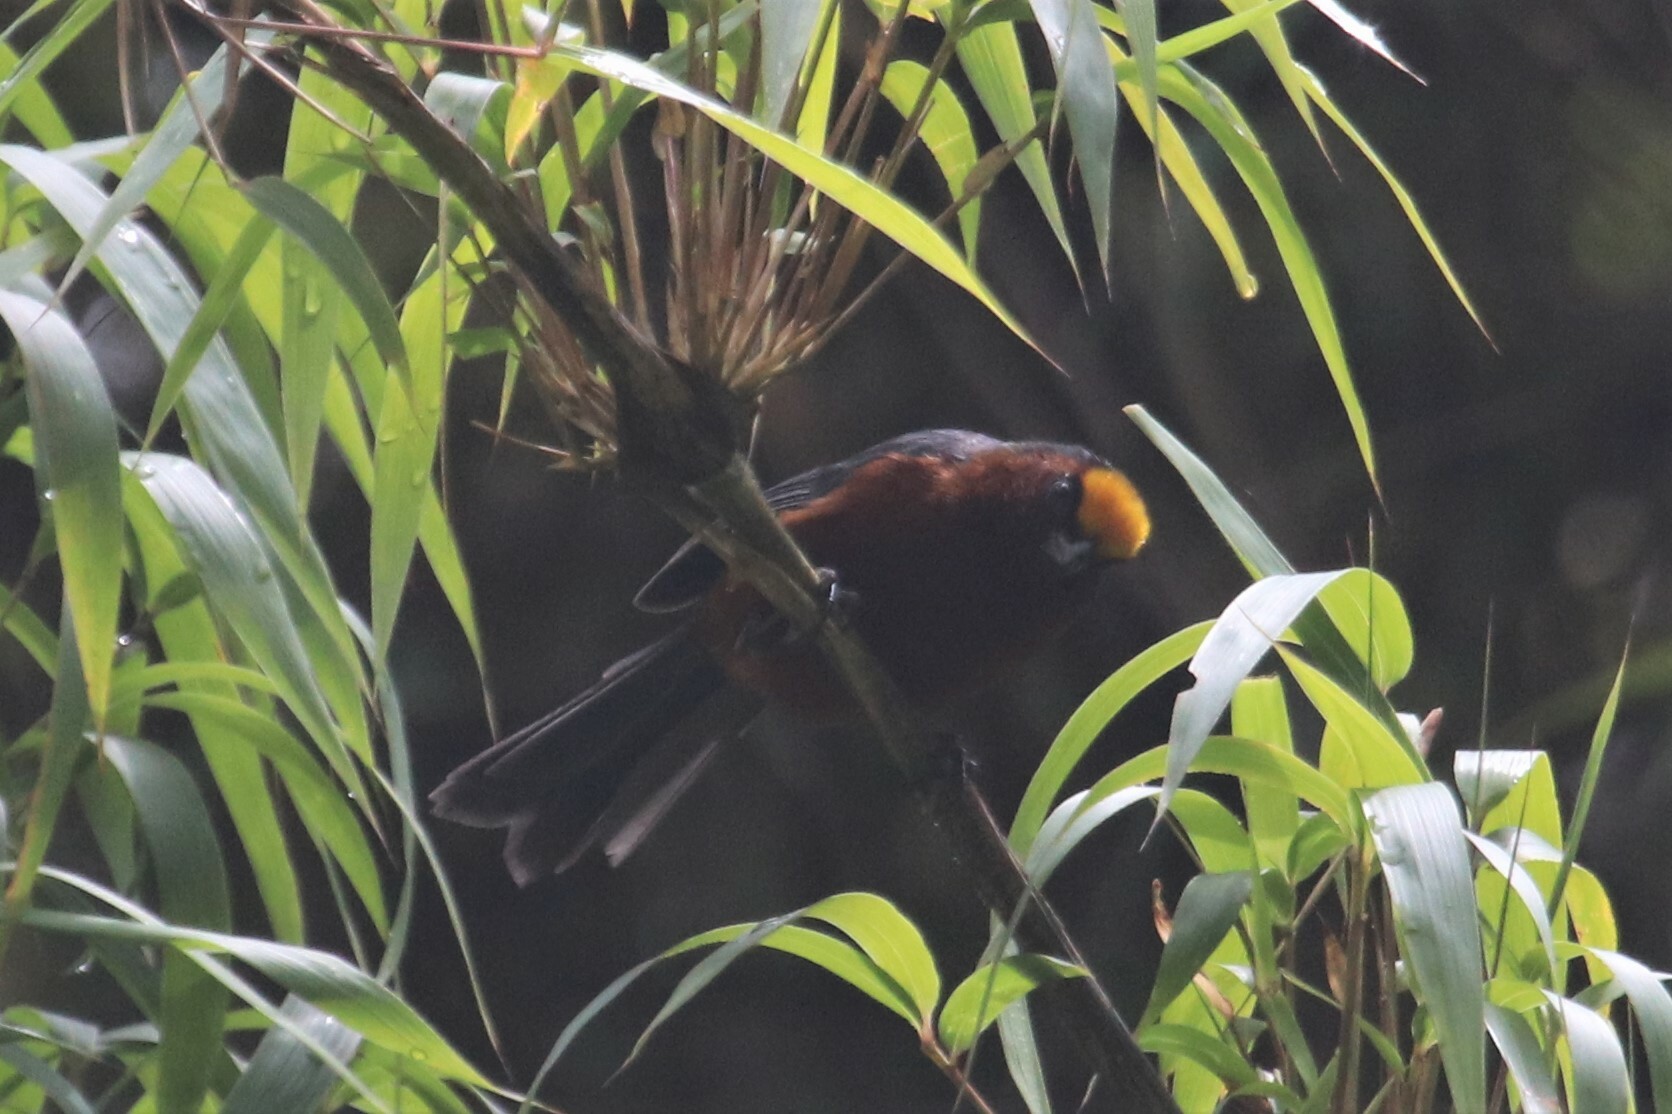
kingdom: Animalia
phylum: Chordata
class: Aves
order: Passeriformes
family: Thraupidae
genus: Catamblyrhynchus
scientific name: Catamblyrhynchus diadema
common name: Plushcap
